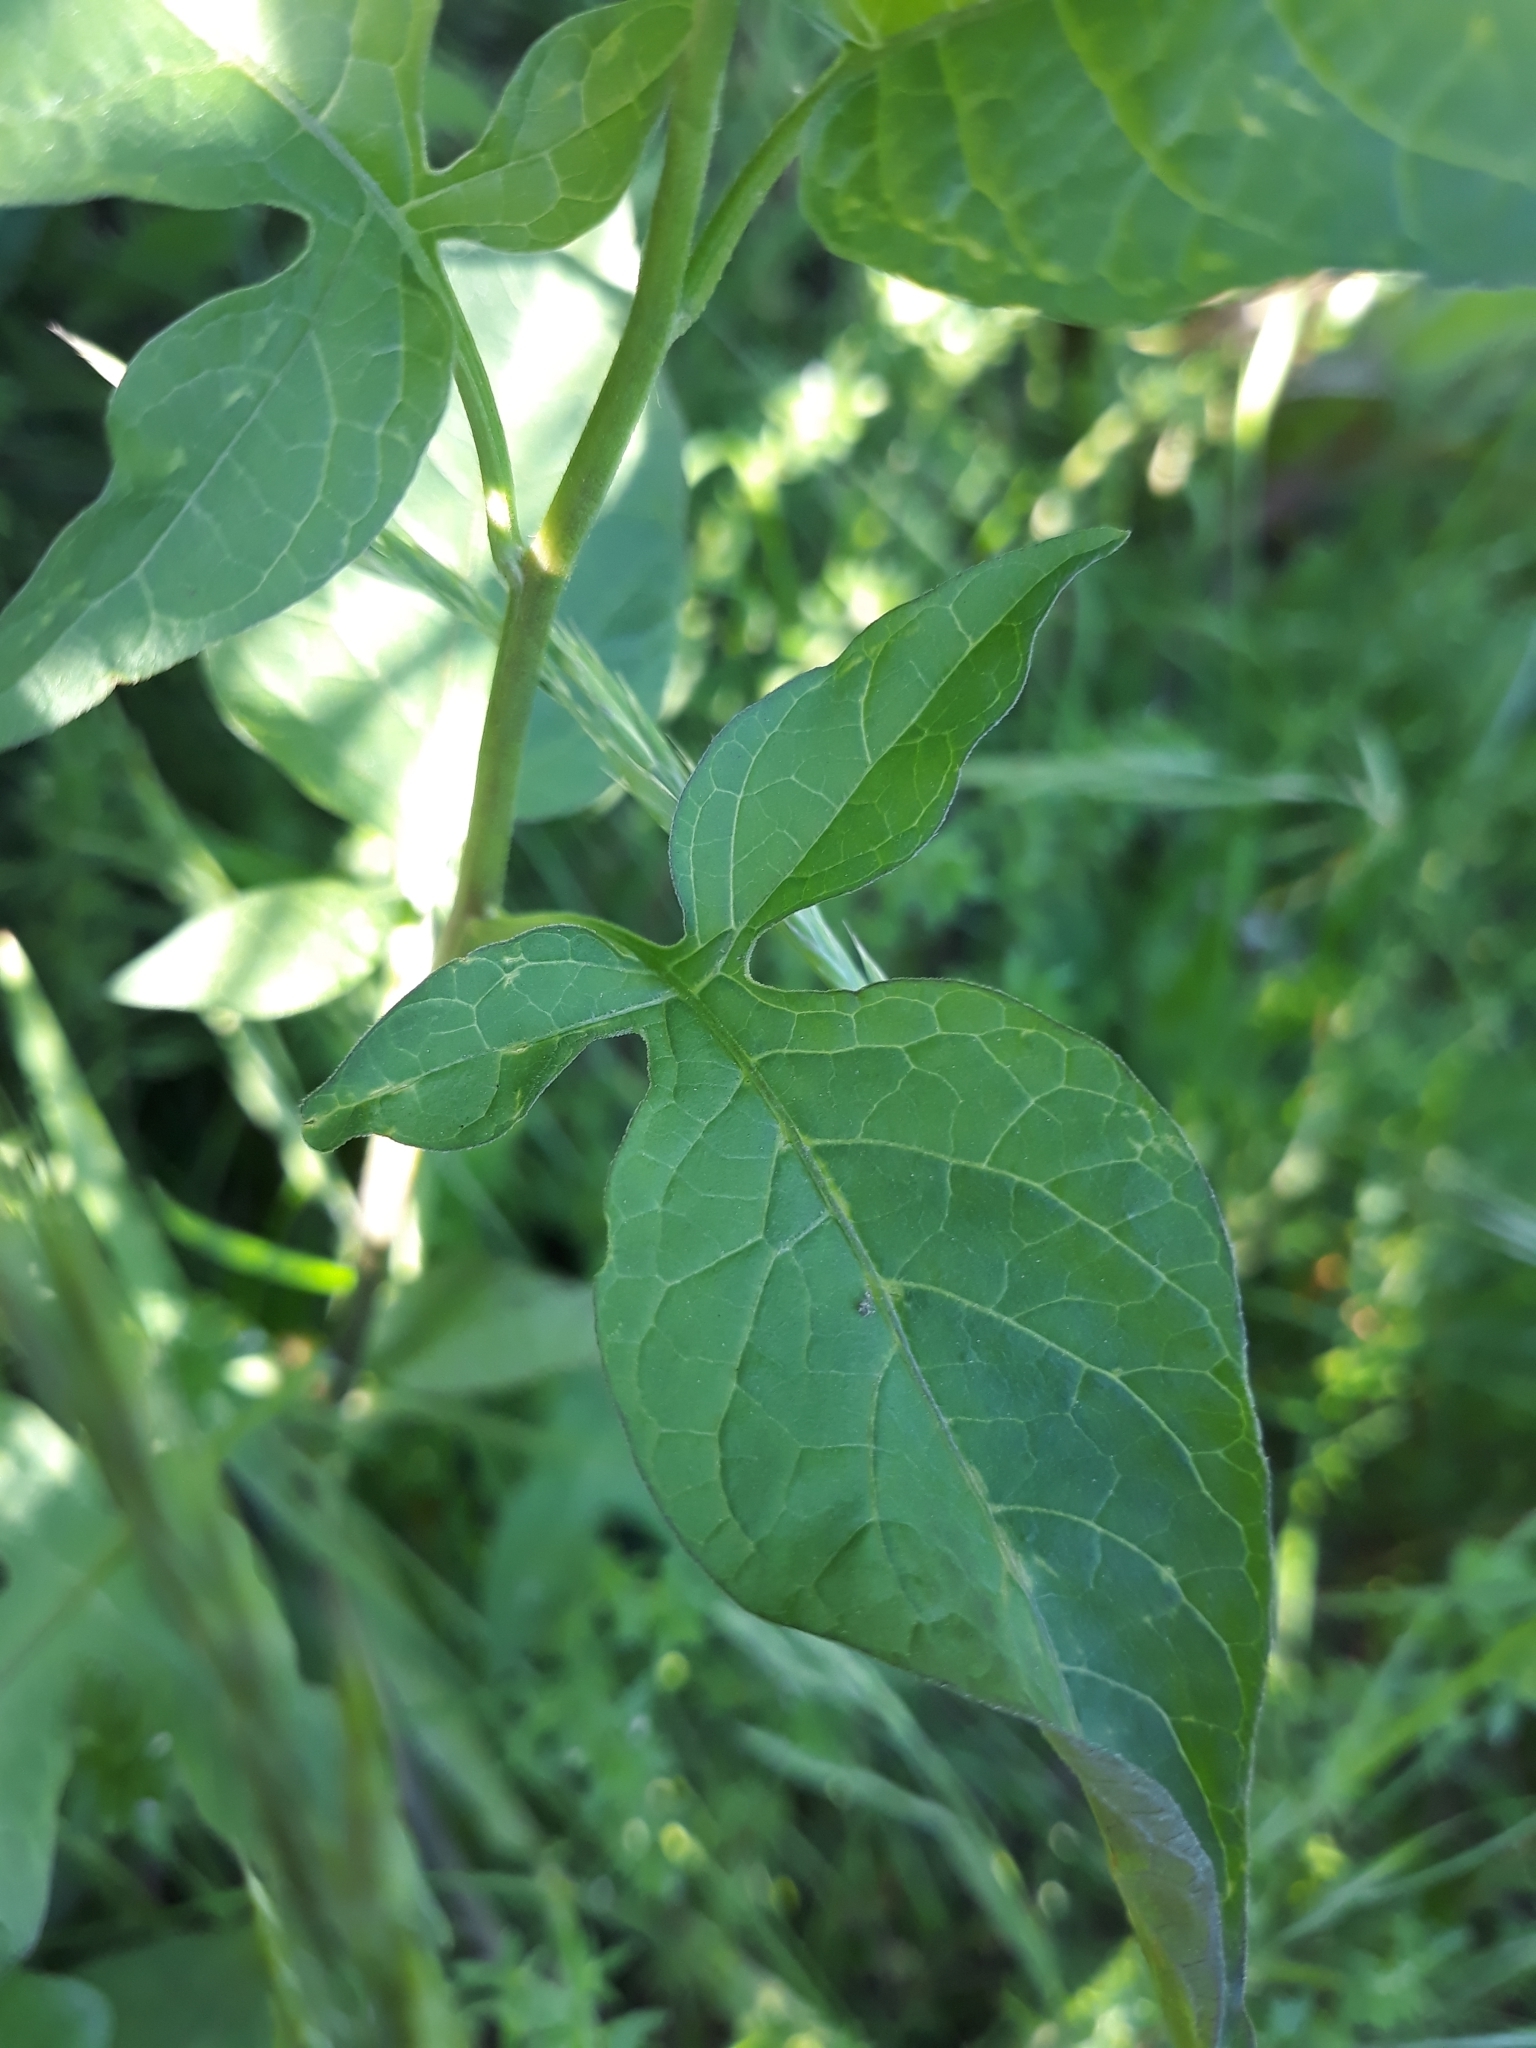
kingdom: Plantae
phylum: Tracheophyta
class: Magnoliopsida
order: Solanales
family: Solanaceae
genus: Solanum
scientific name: Solanum dulcamara
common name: Climbing nightshade
